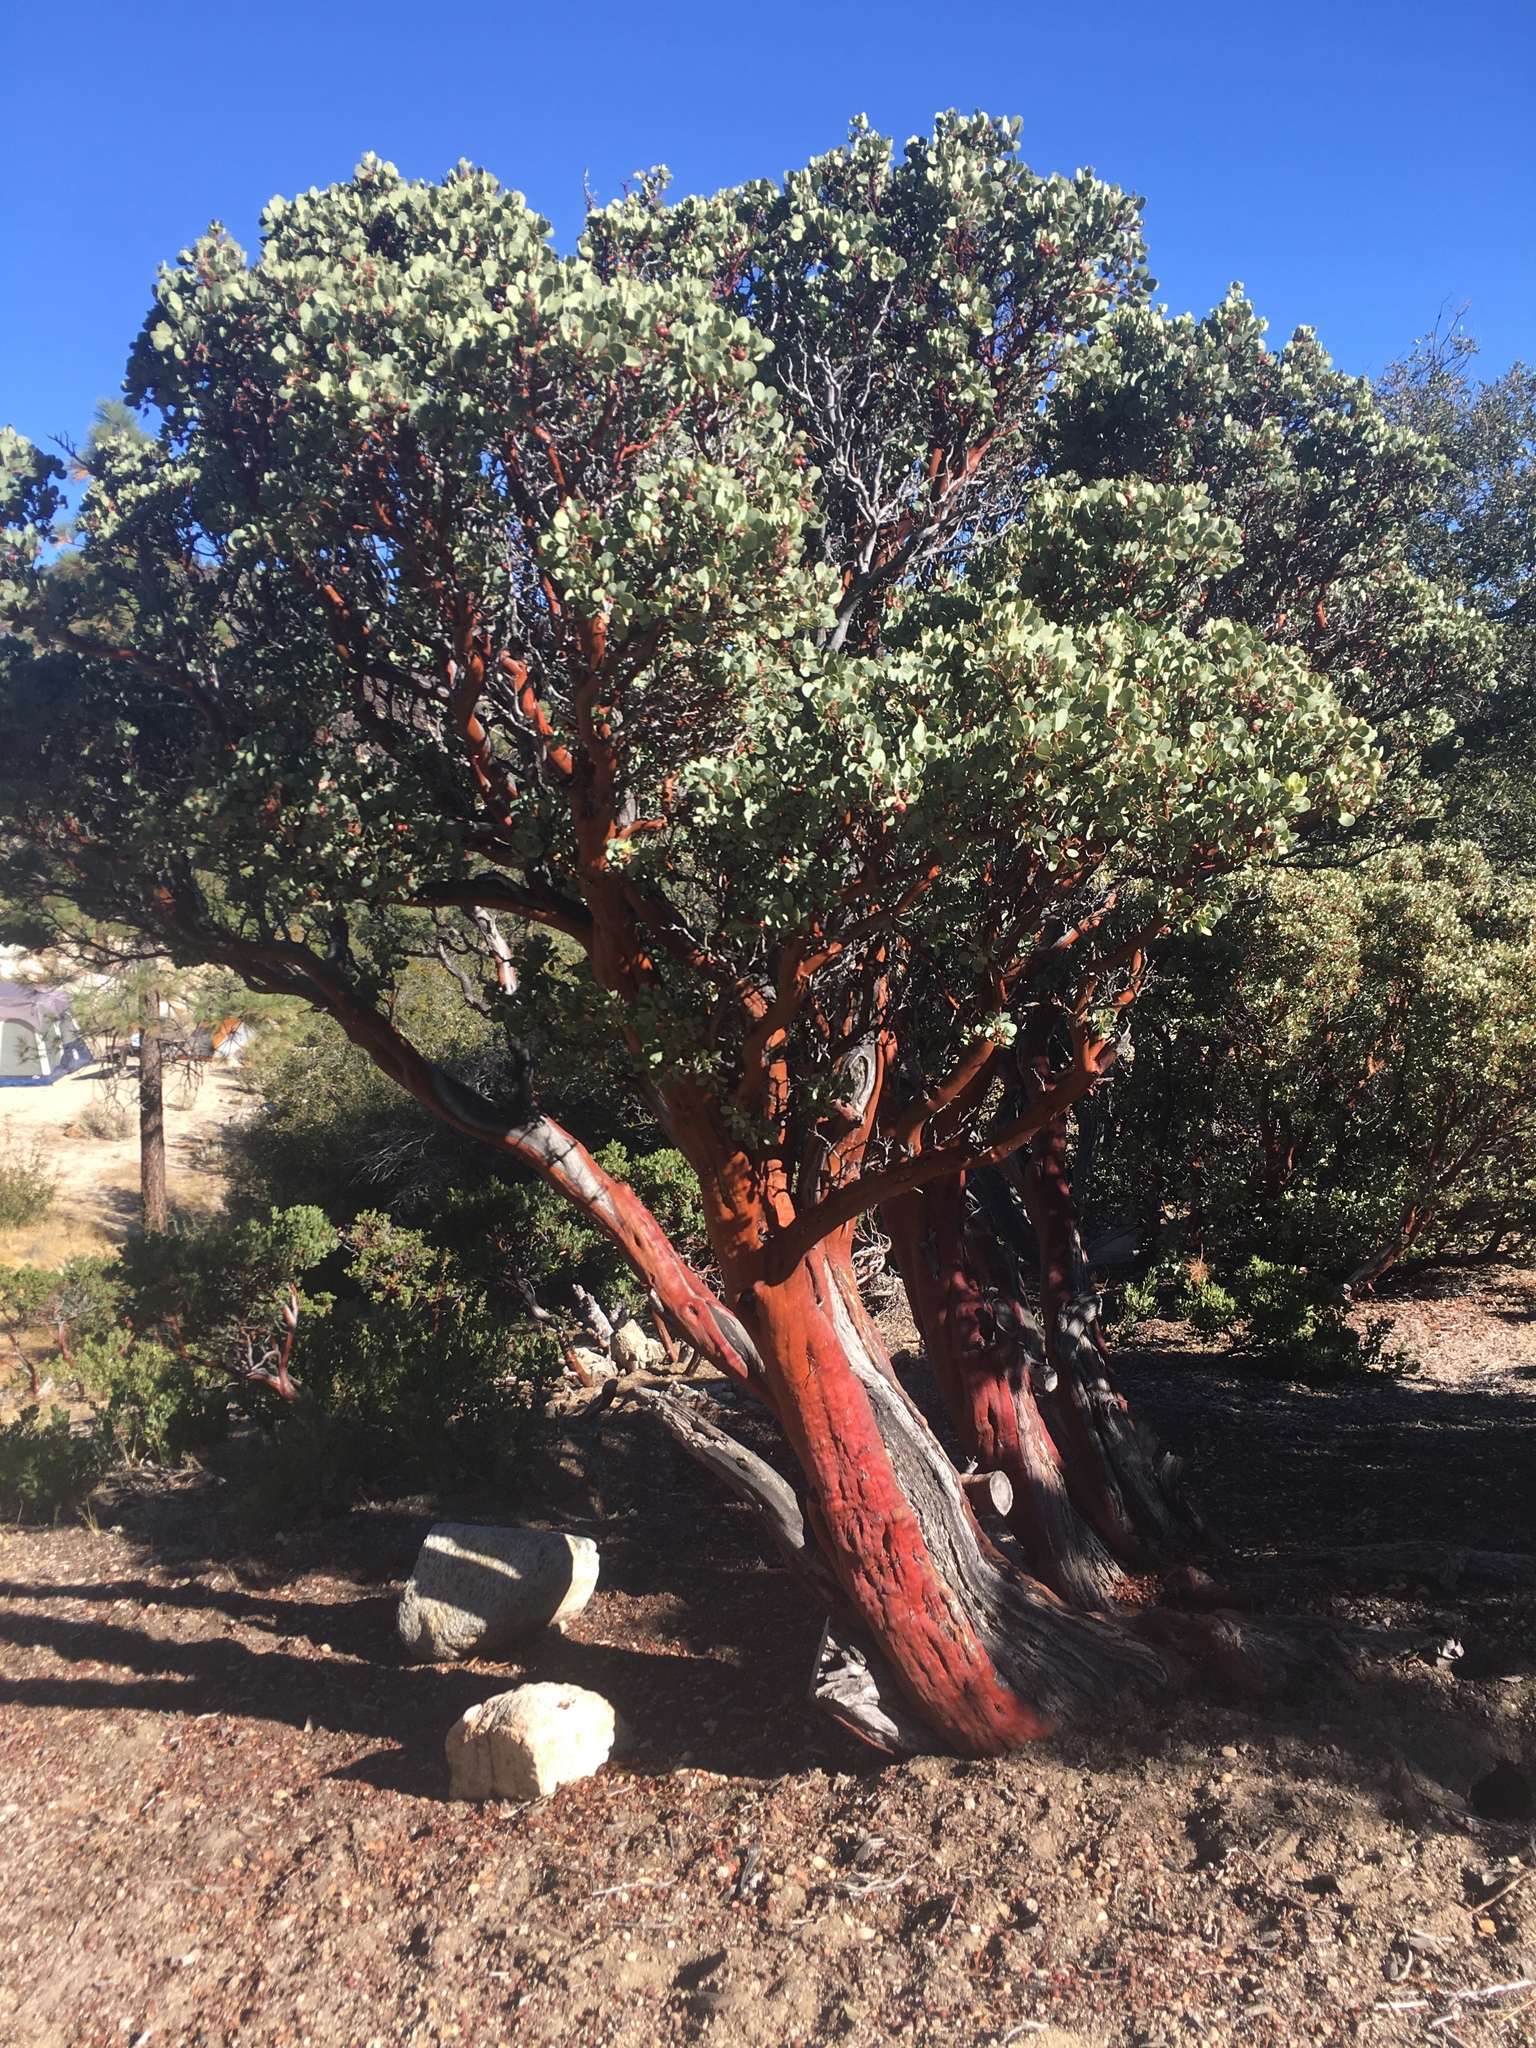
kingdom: Plantae
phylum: Tracheophyta
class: Magnoliopsida
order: Ericales
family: Ericaceae
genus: Arctostaphylos
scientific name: Arctostaphylos glauca
